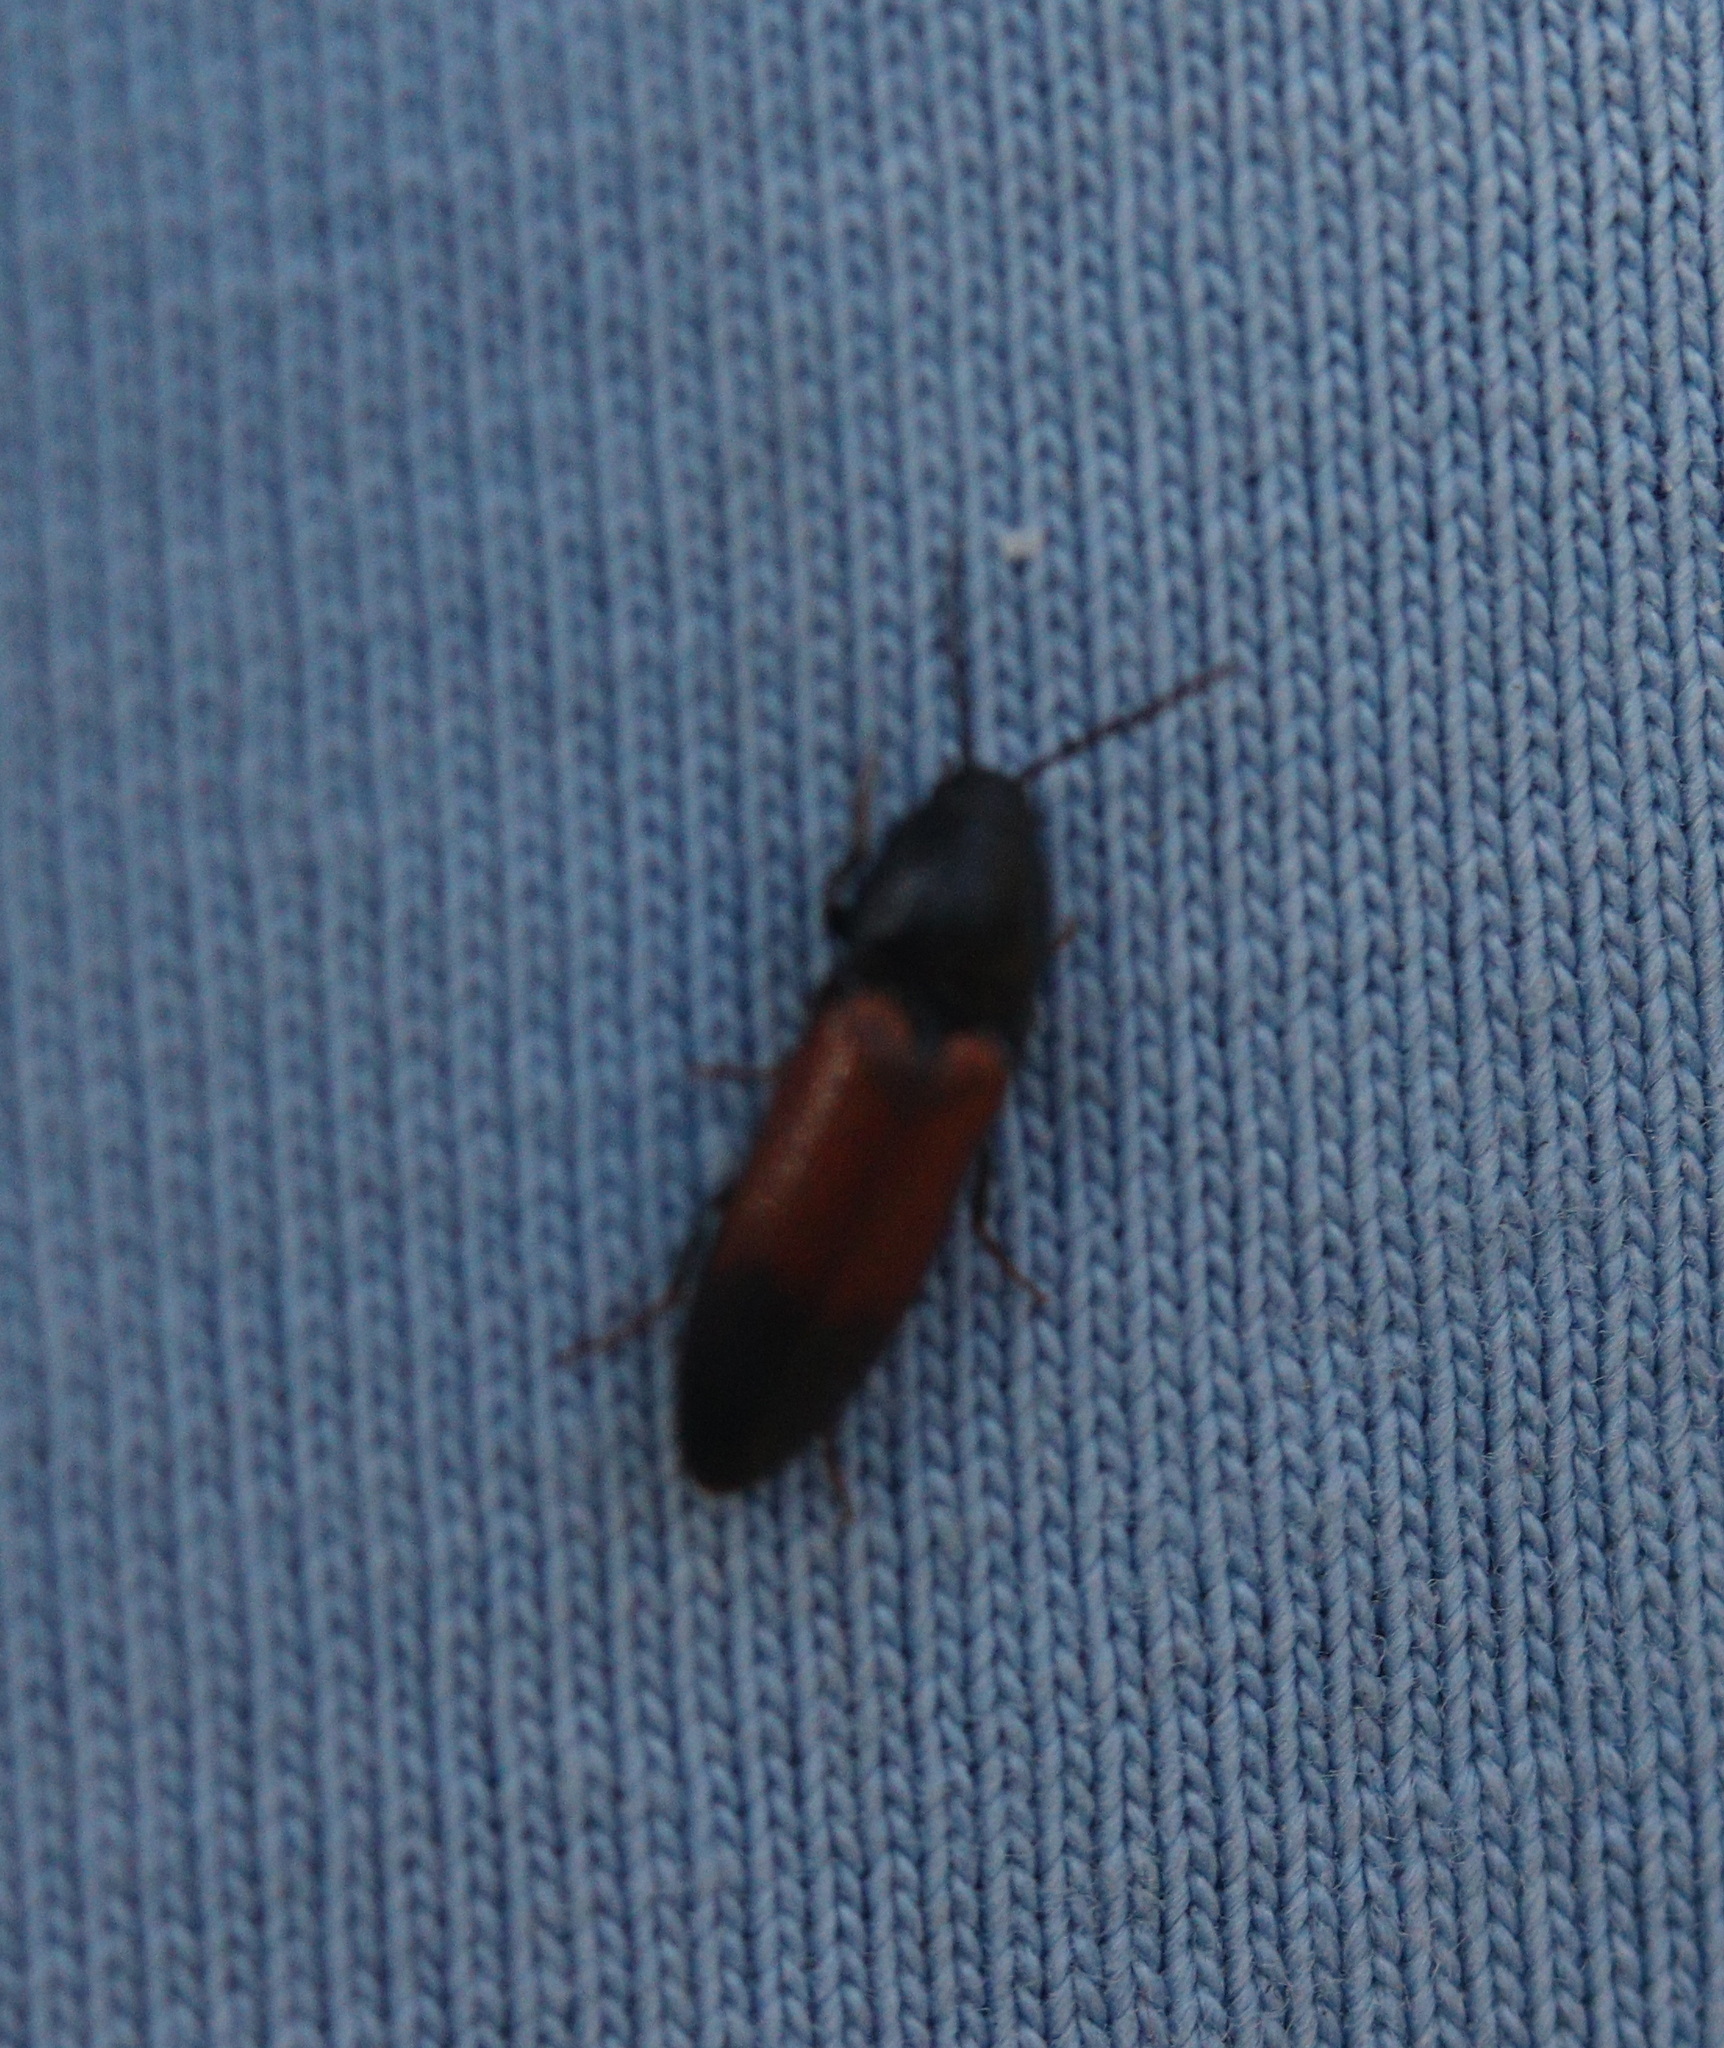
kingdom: Animalia
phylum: Arthropoda
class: Insecta
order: Coleoptera
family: Elateridae
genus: Ampedus
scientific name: Ampedus balteatus
